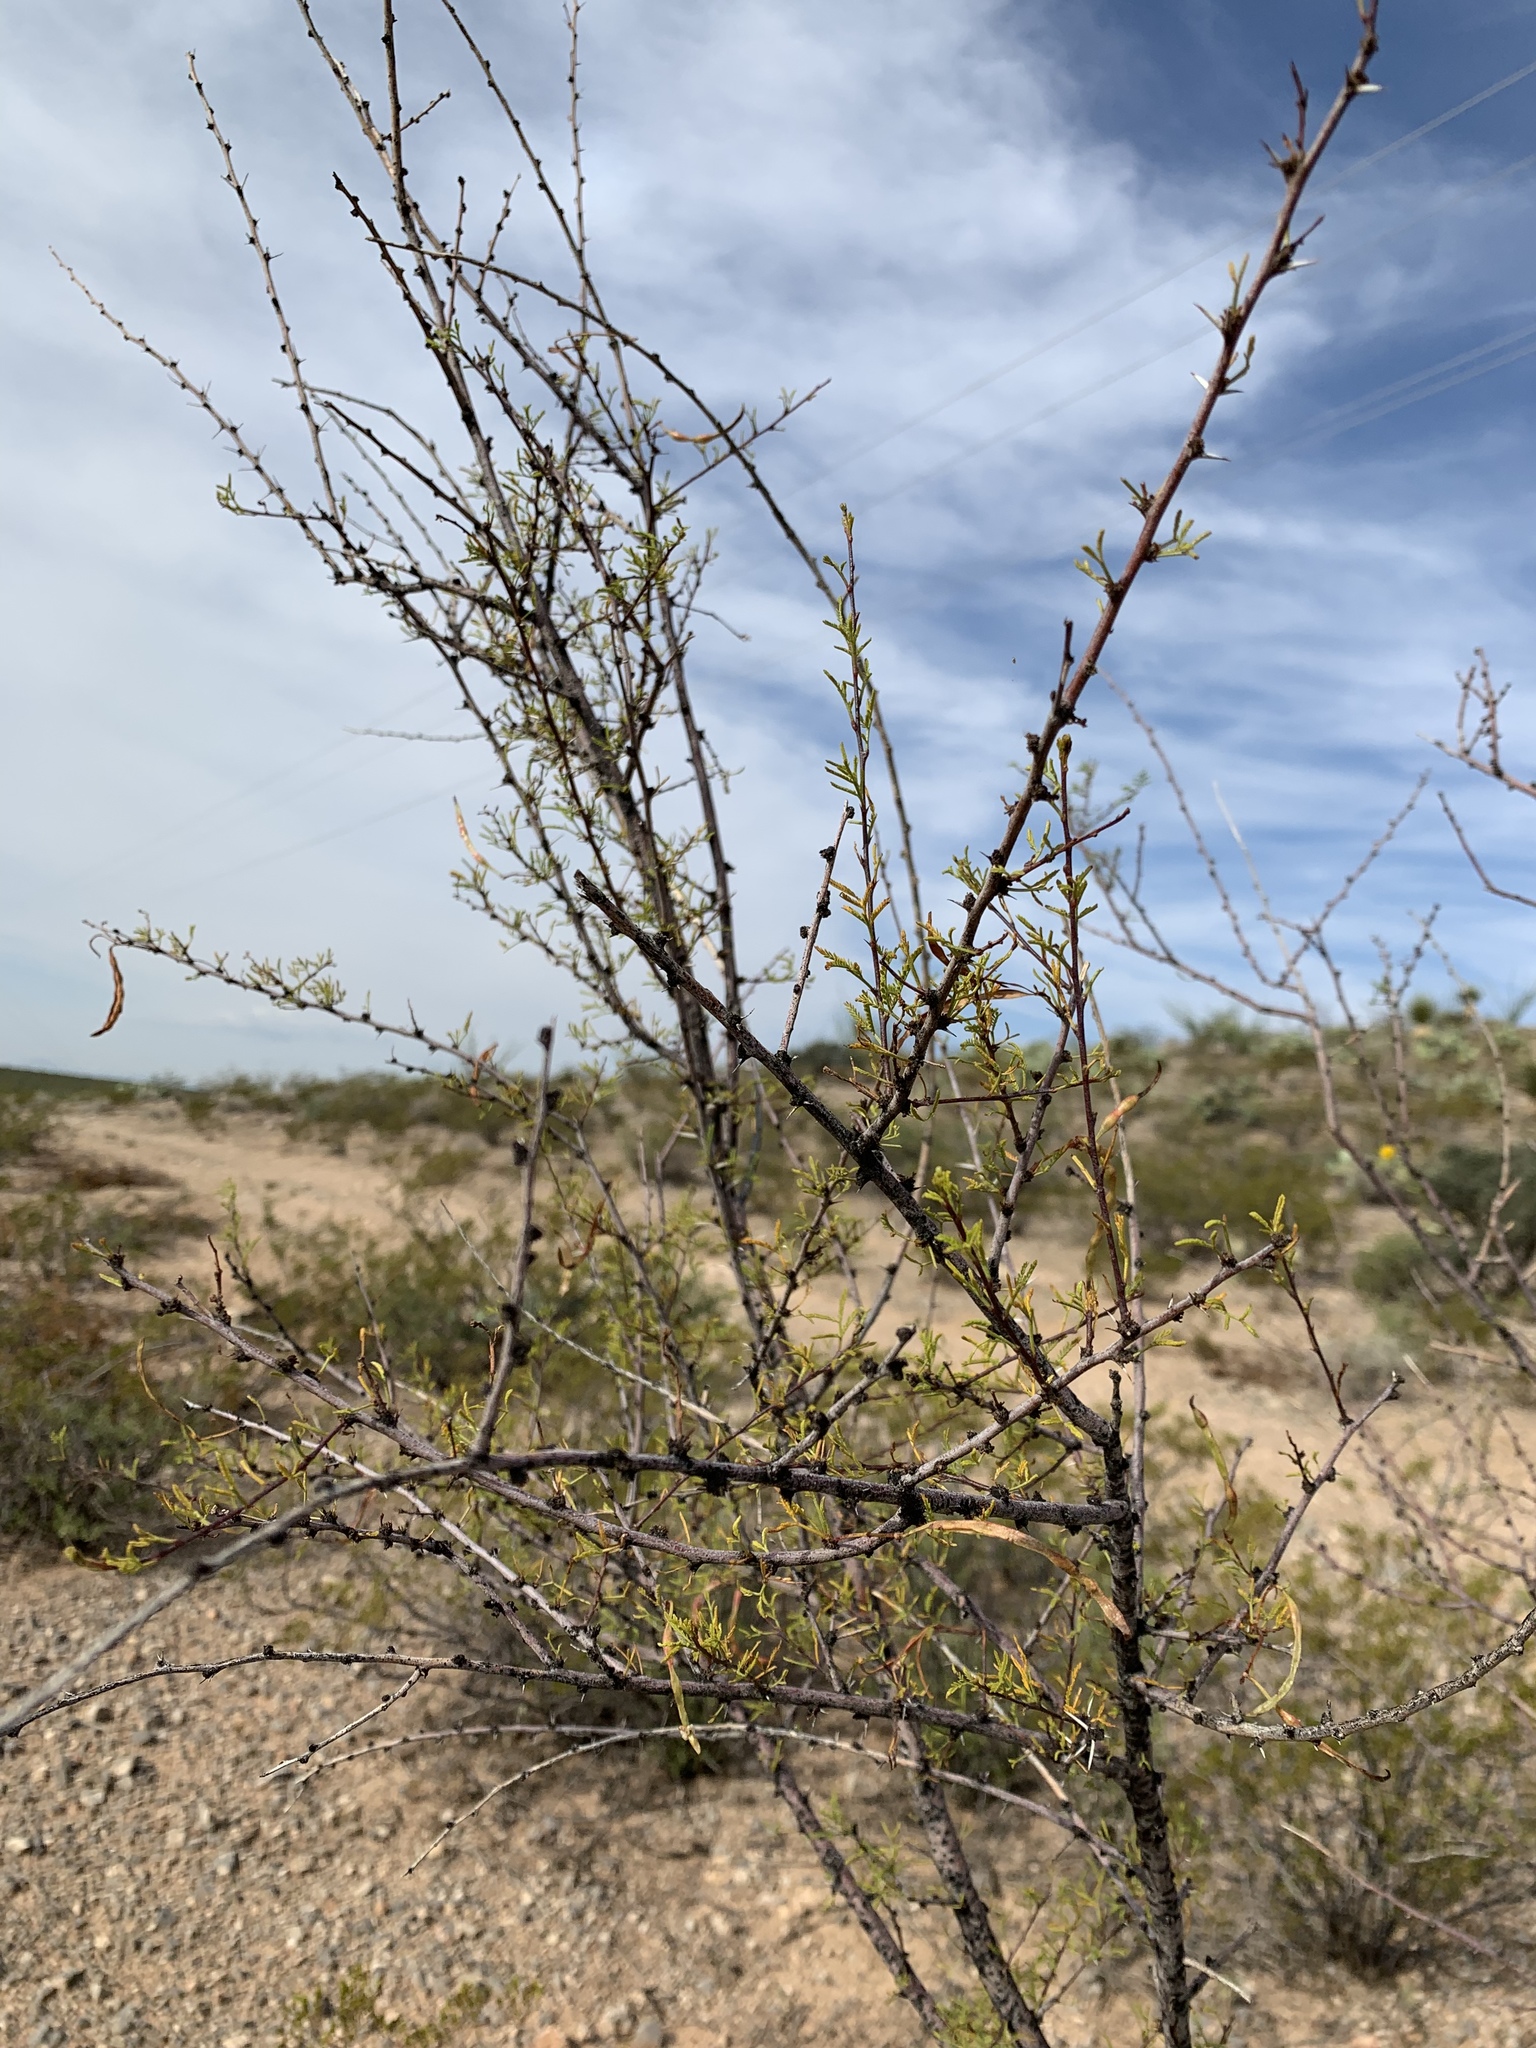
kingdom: Plantae
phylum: Tracheophyta
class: Magnoliopsida
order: Fabales
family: Fabaceae
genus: Vachellia
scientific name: Vachellia constricta
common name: Mescat acacia
